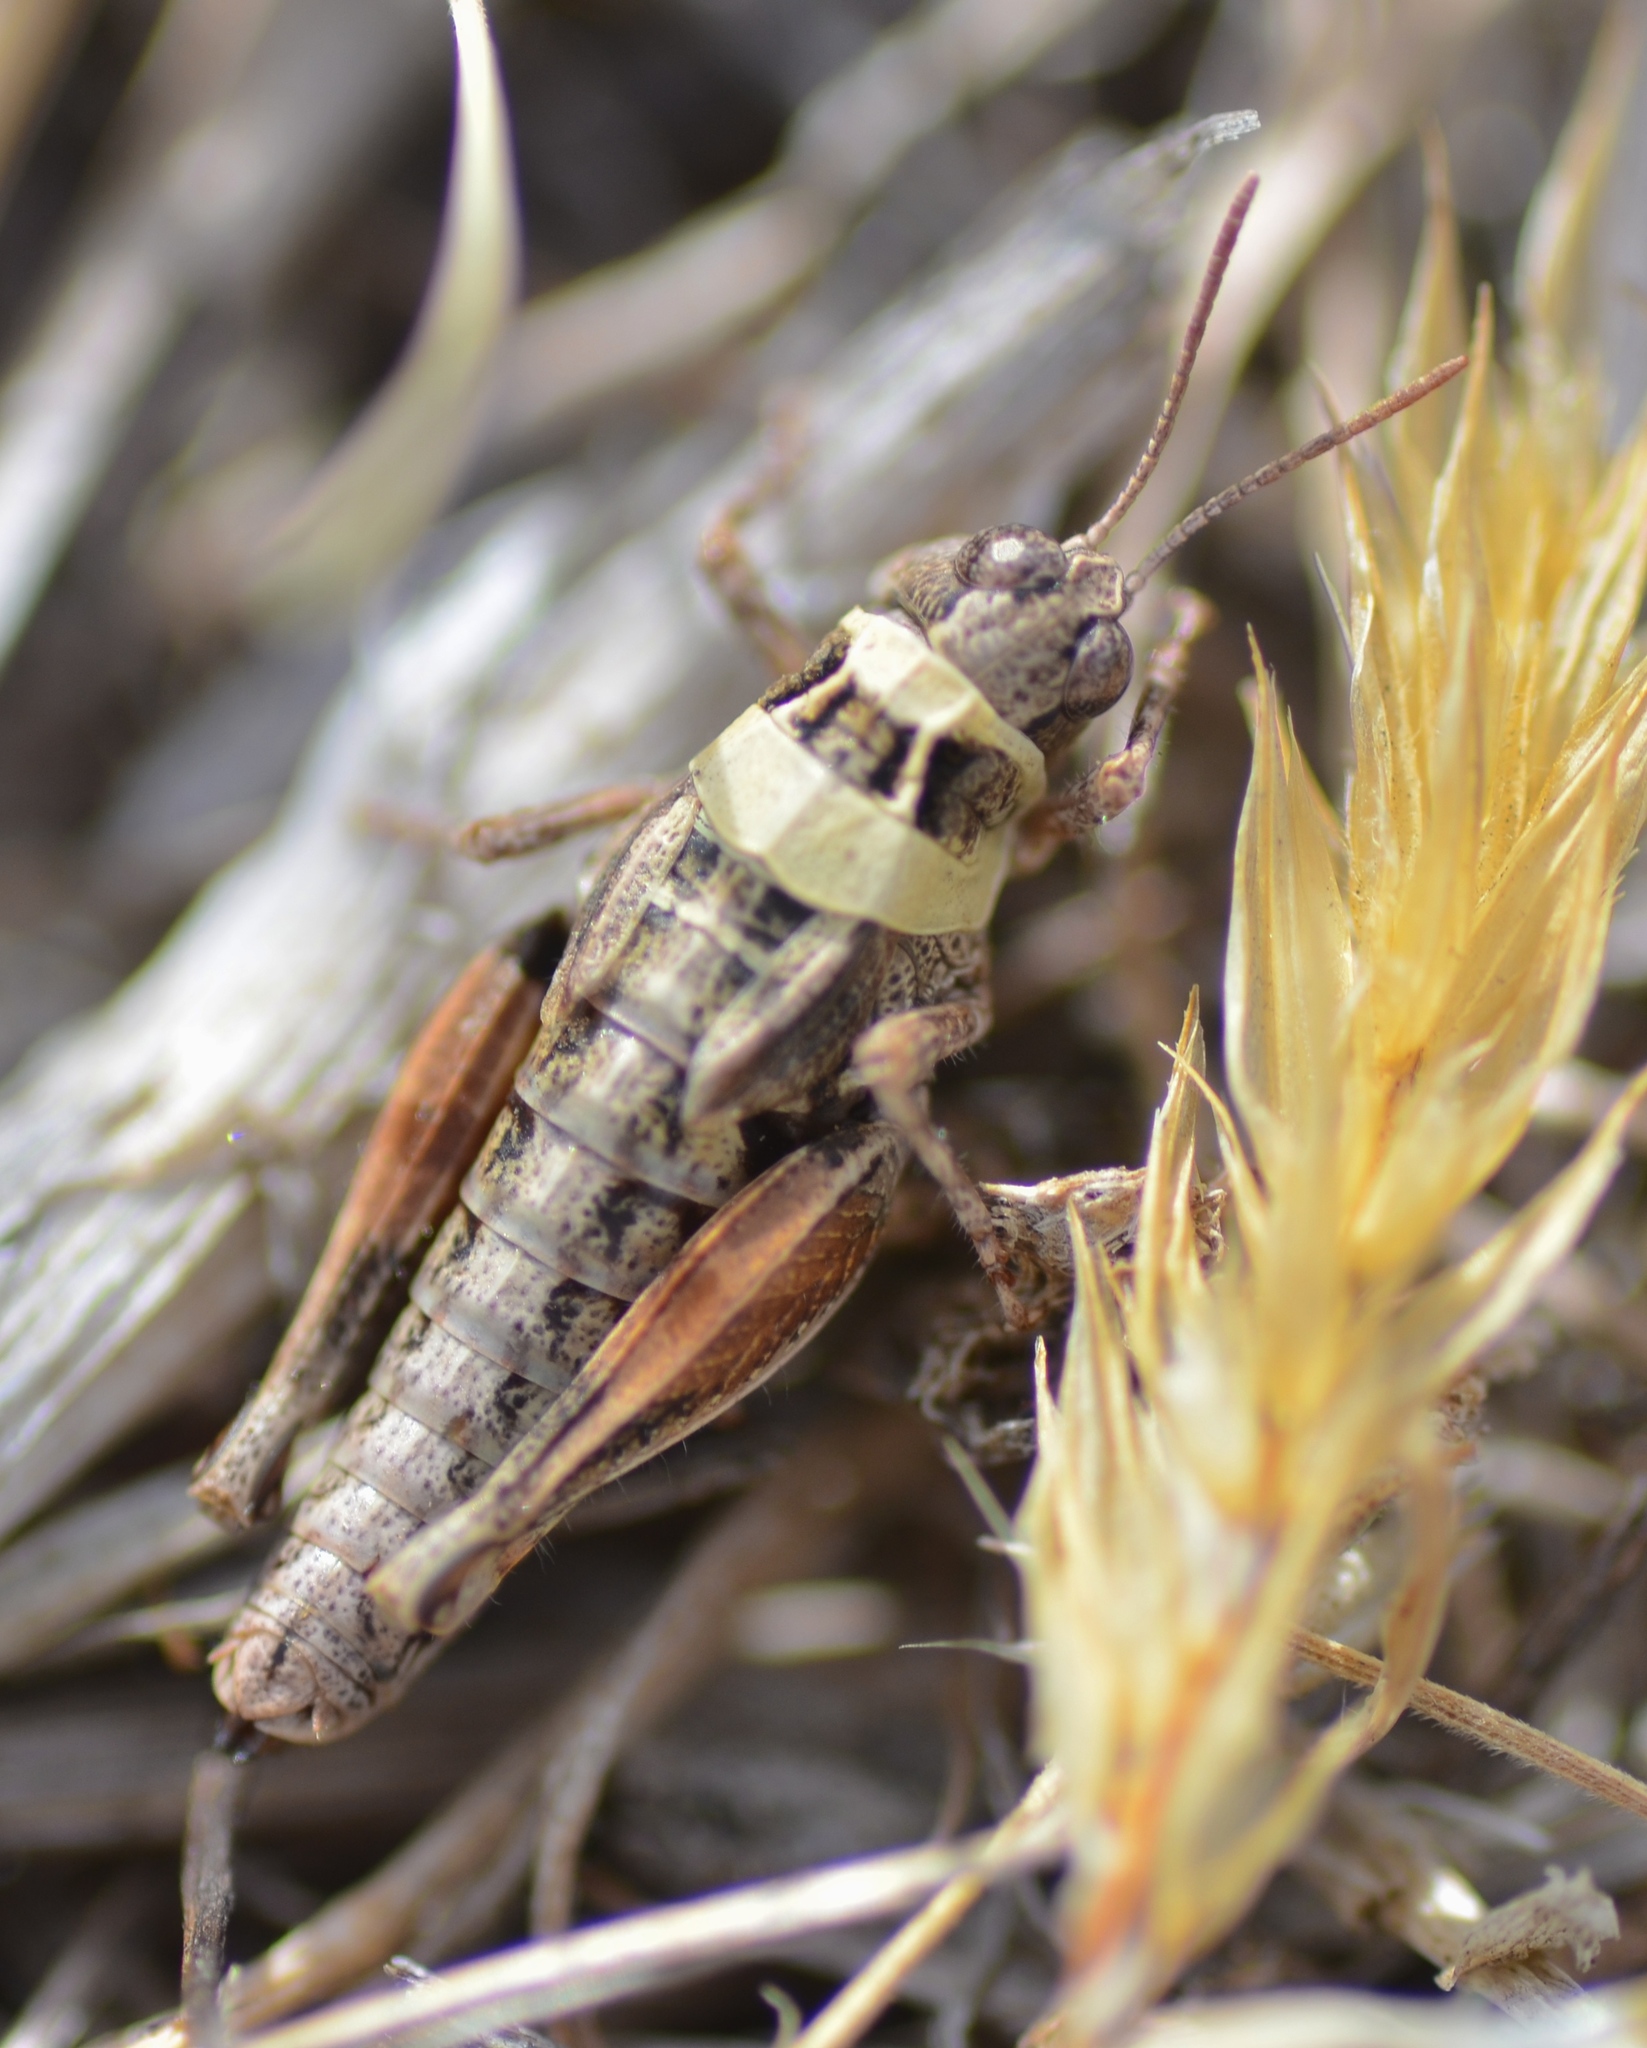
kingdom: Animalia
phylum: Arthropoda
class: Insecta
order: Orthoptera
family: Acrididae
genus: Phaulacridium
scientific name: Phaulacridium marginale
